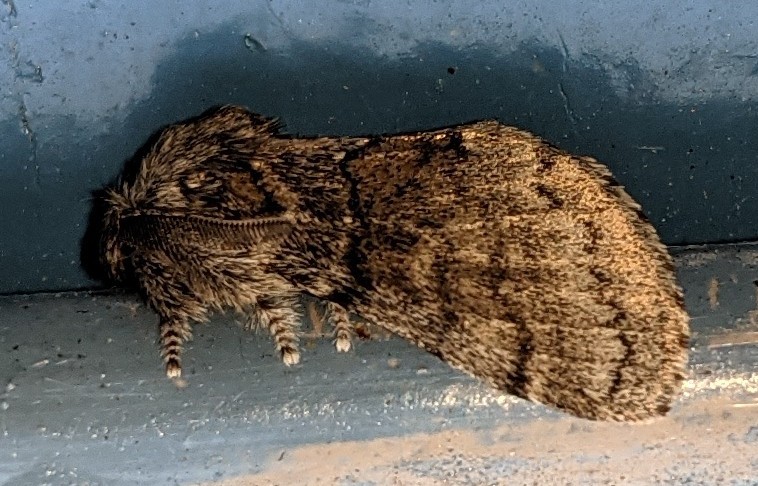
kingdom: Animalia
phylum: Arthropoda
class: Insecta
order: Lepidoptera
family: Notodontidae
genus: Gluphisia
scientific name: Gluphisia septentrionis
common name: Common gluphisia
